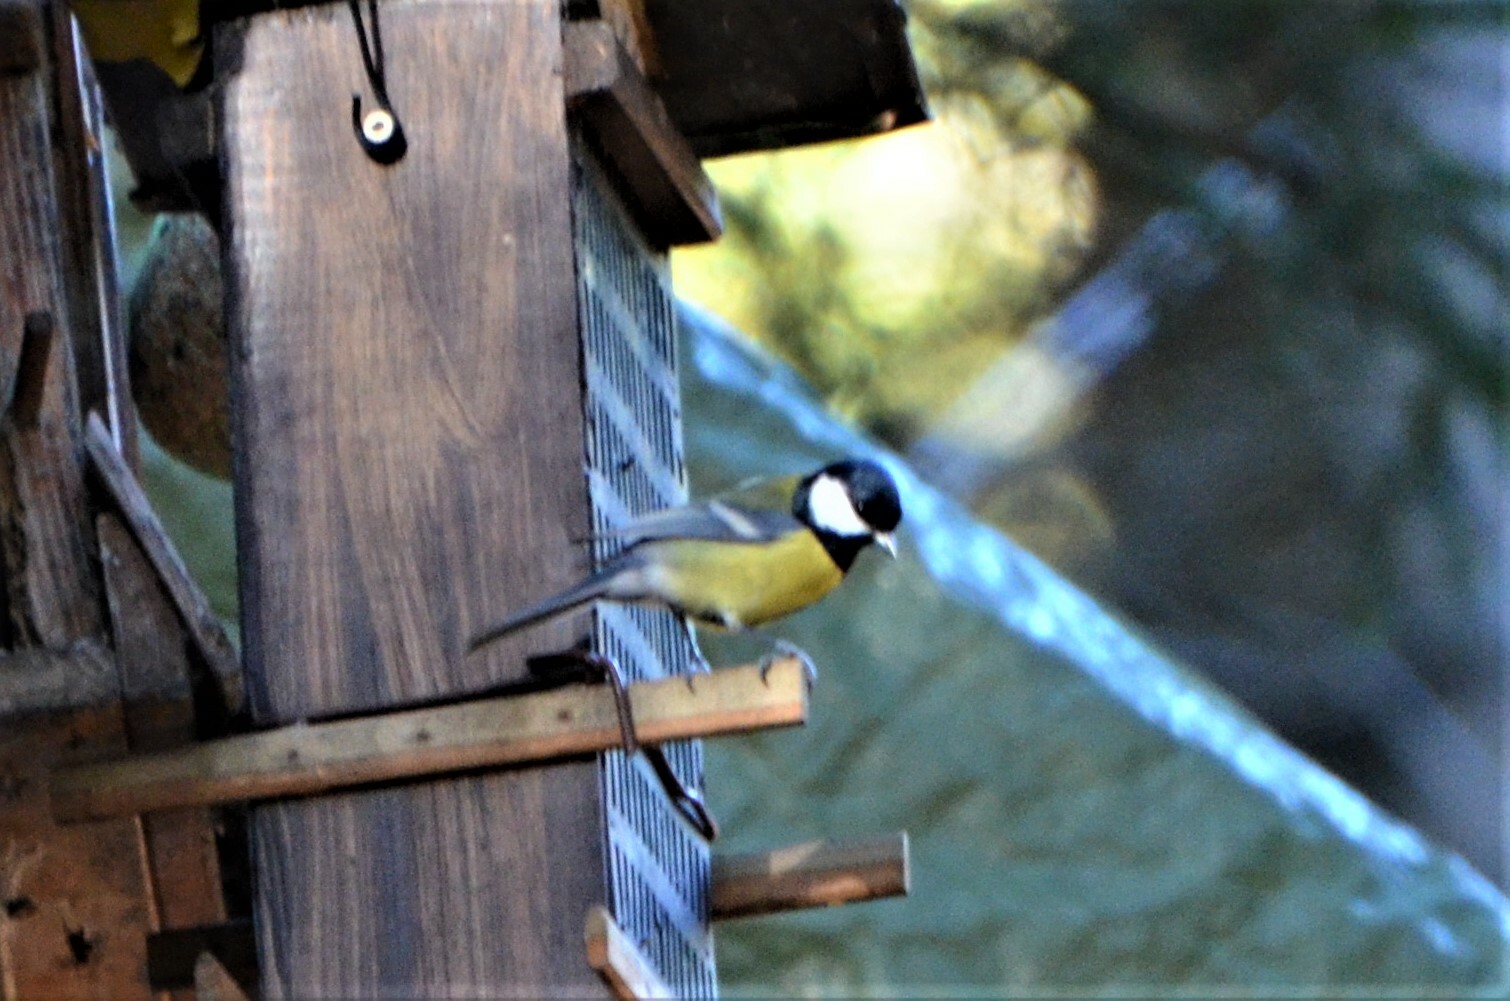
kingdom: Animalia
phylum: Chordata
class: Aves
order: Passeriformes
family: Paridae
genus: Parus
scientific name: Parus major
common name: Great tit
